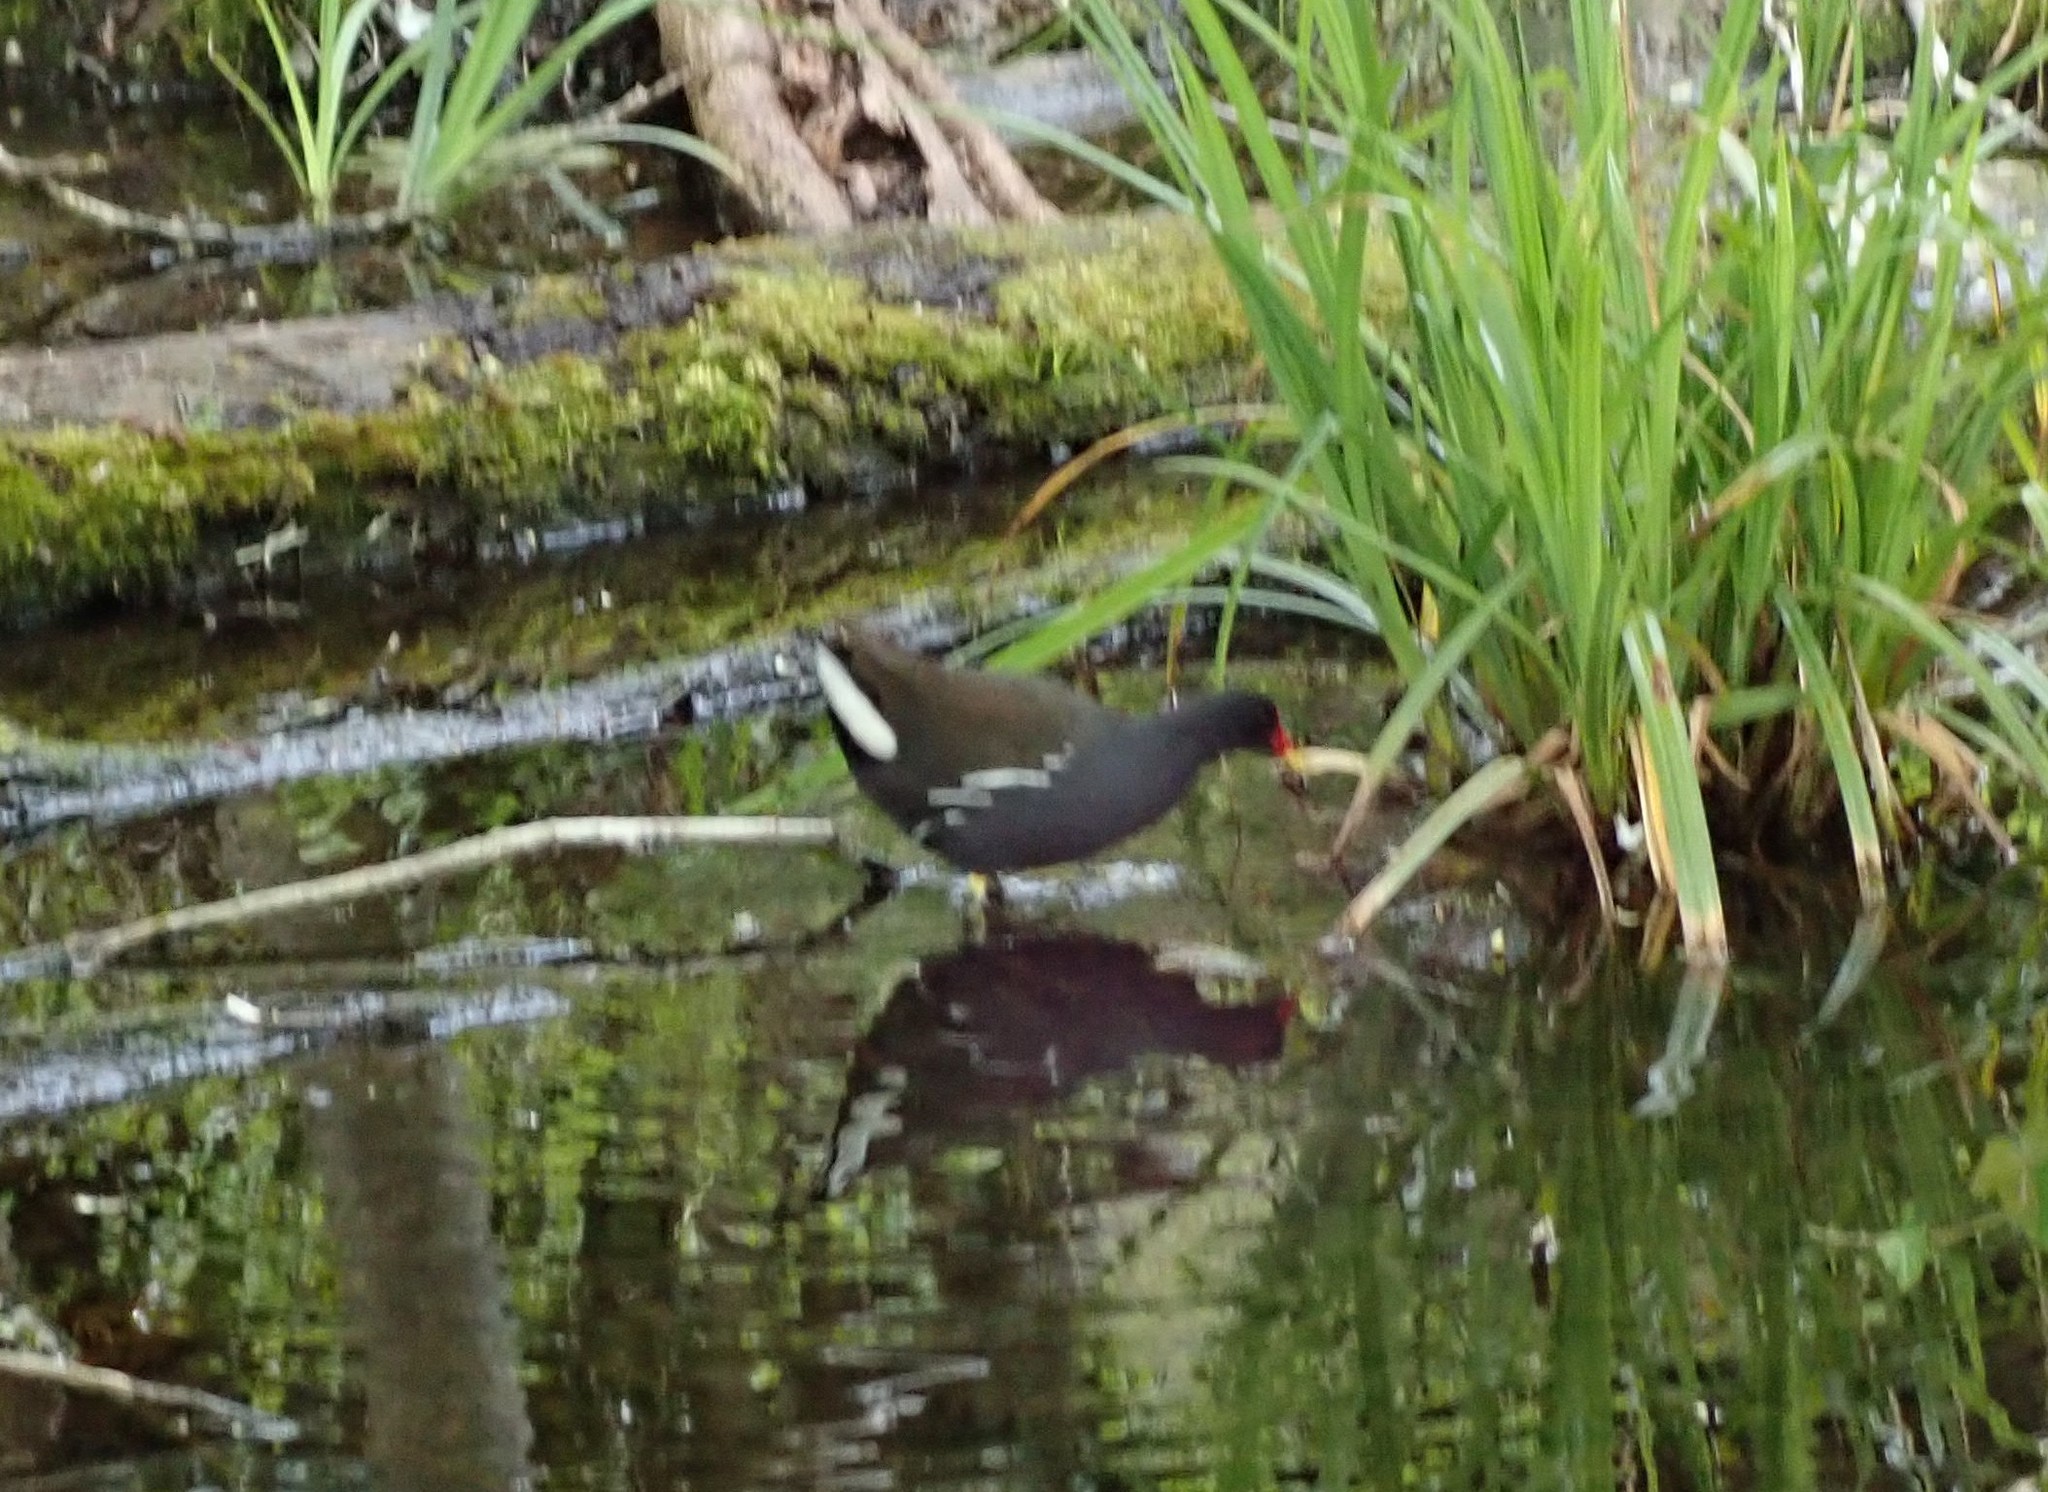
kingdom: Animalia
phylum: Chordata
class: Aves
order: Gruiformes
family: Rallidae
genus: Gallinula
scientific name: Gallinula chloropus
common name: Common moorhen
